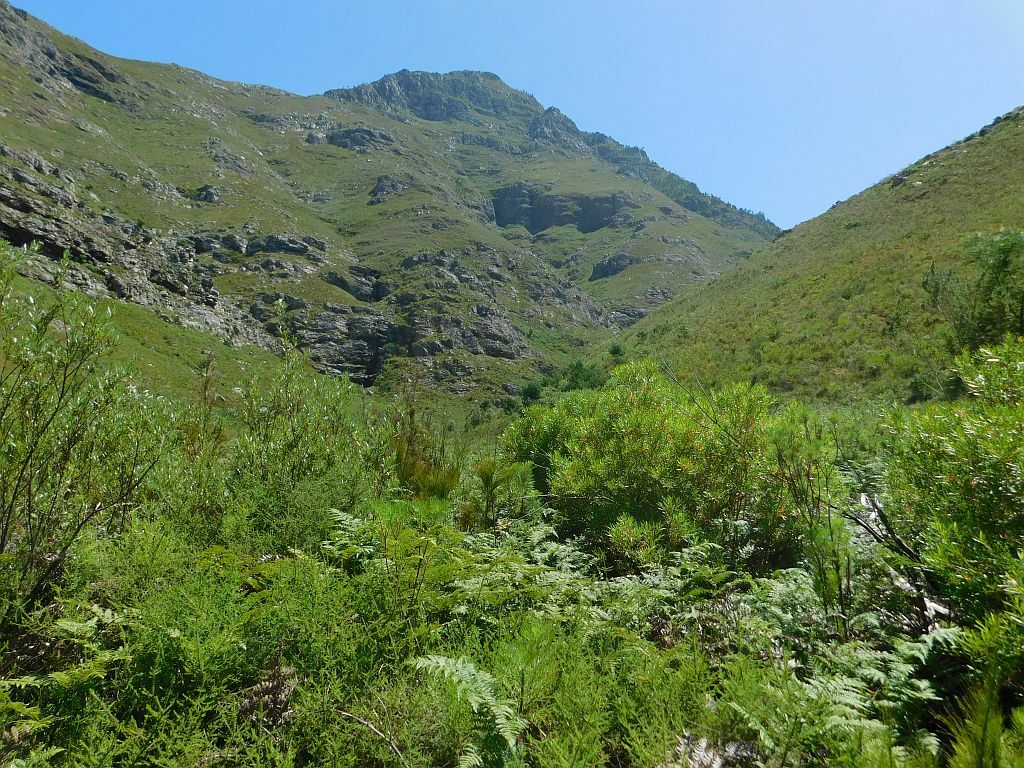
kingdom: Plantae
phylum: Tracheophyta
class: Magnoliopsida
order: Myrtales
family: Myrtaceae
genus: Callistemon
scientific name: Callistemon lanceolatus
